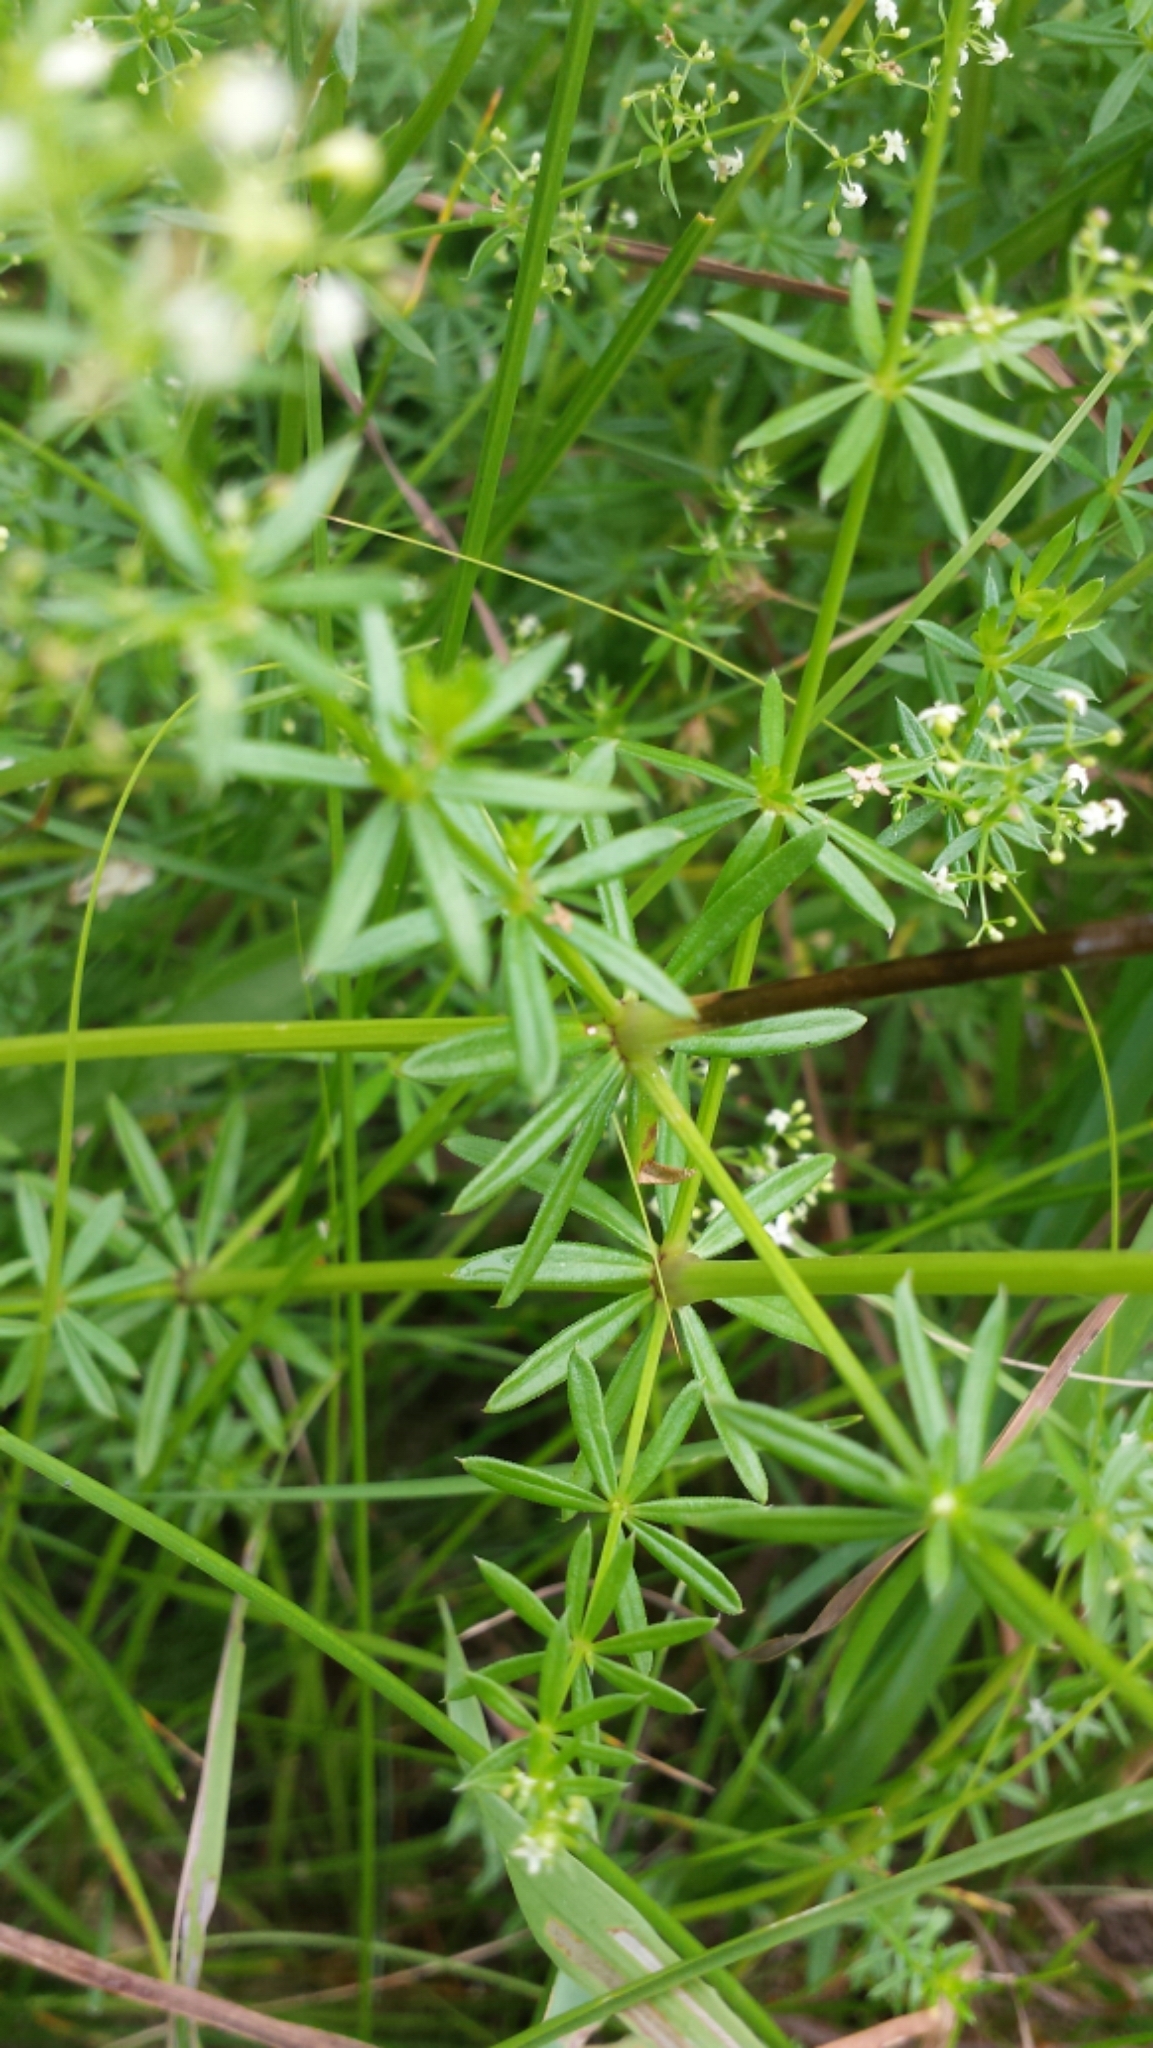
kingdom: Plantae
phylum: Tracheophyta
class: Magnoliopsida
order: Gentianales
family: Rubiaceae
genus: Galium
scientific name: Galium mollugo
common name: Hedge bedstraw
